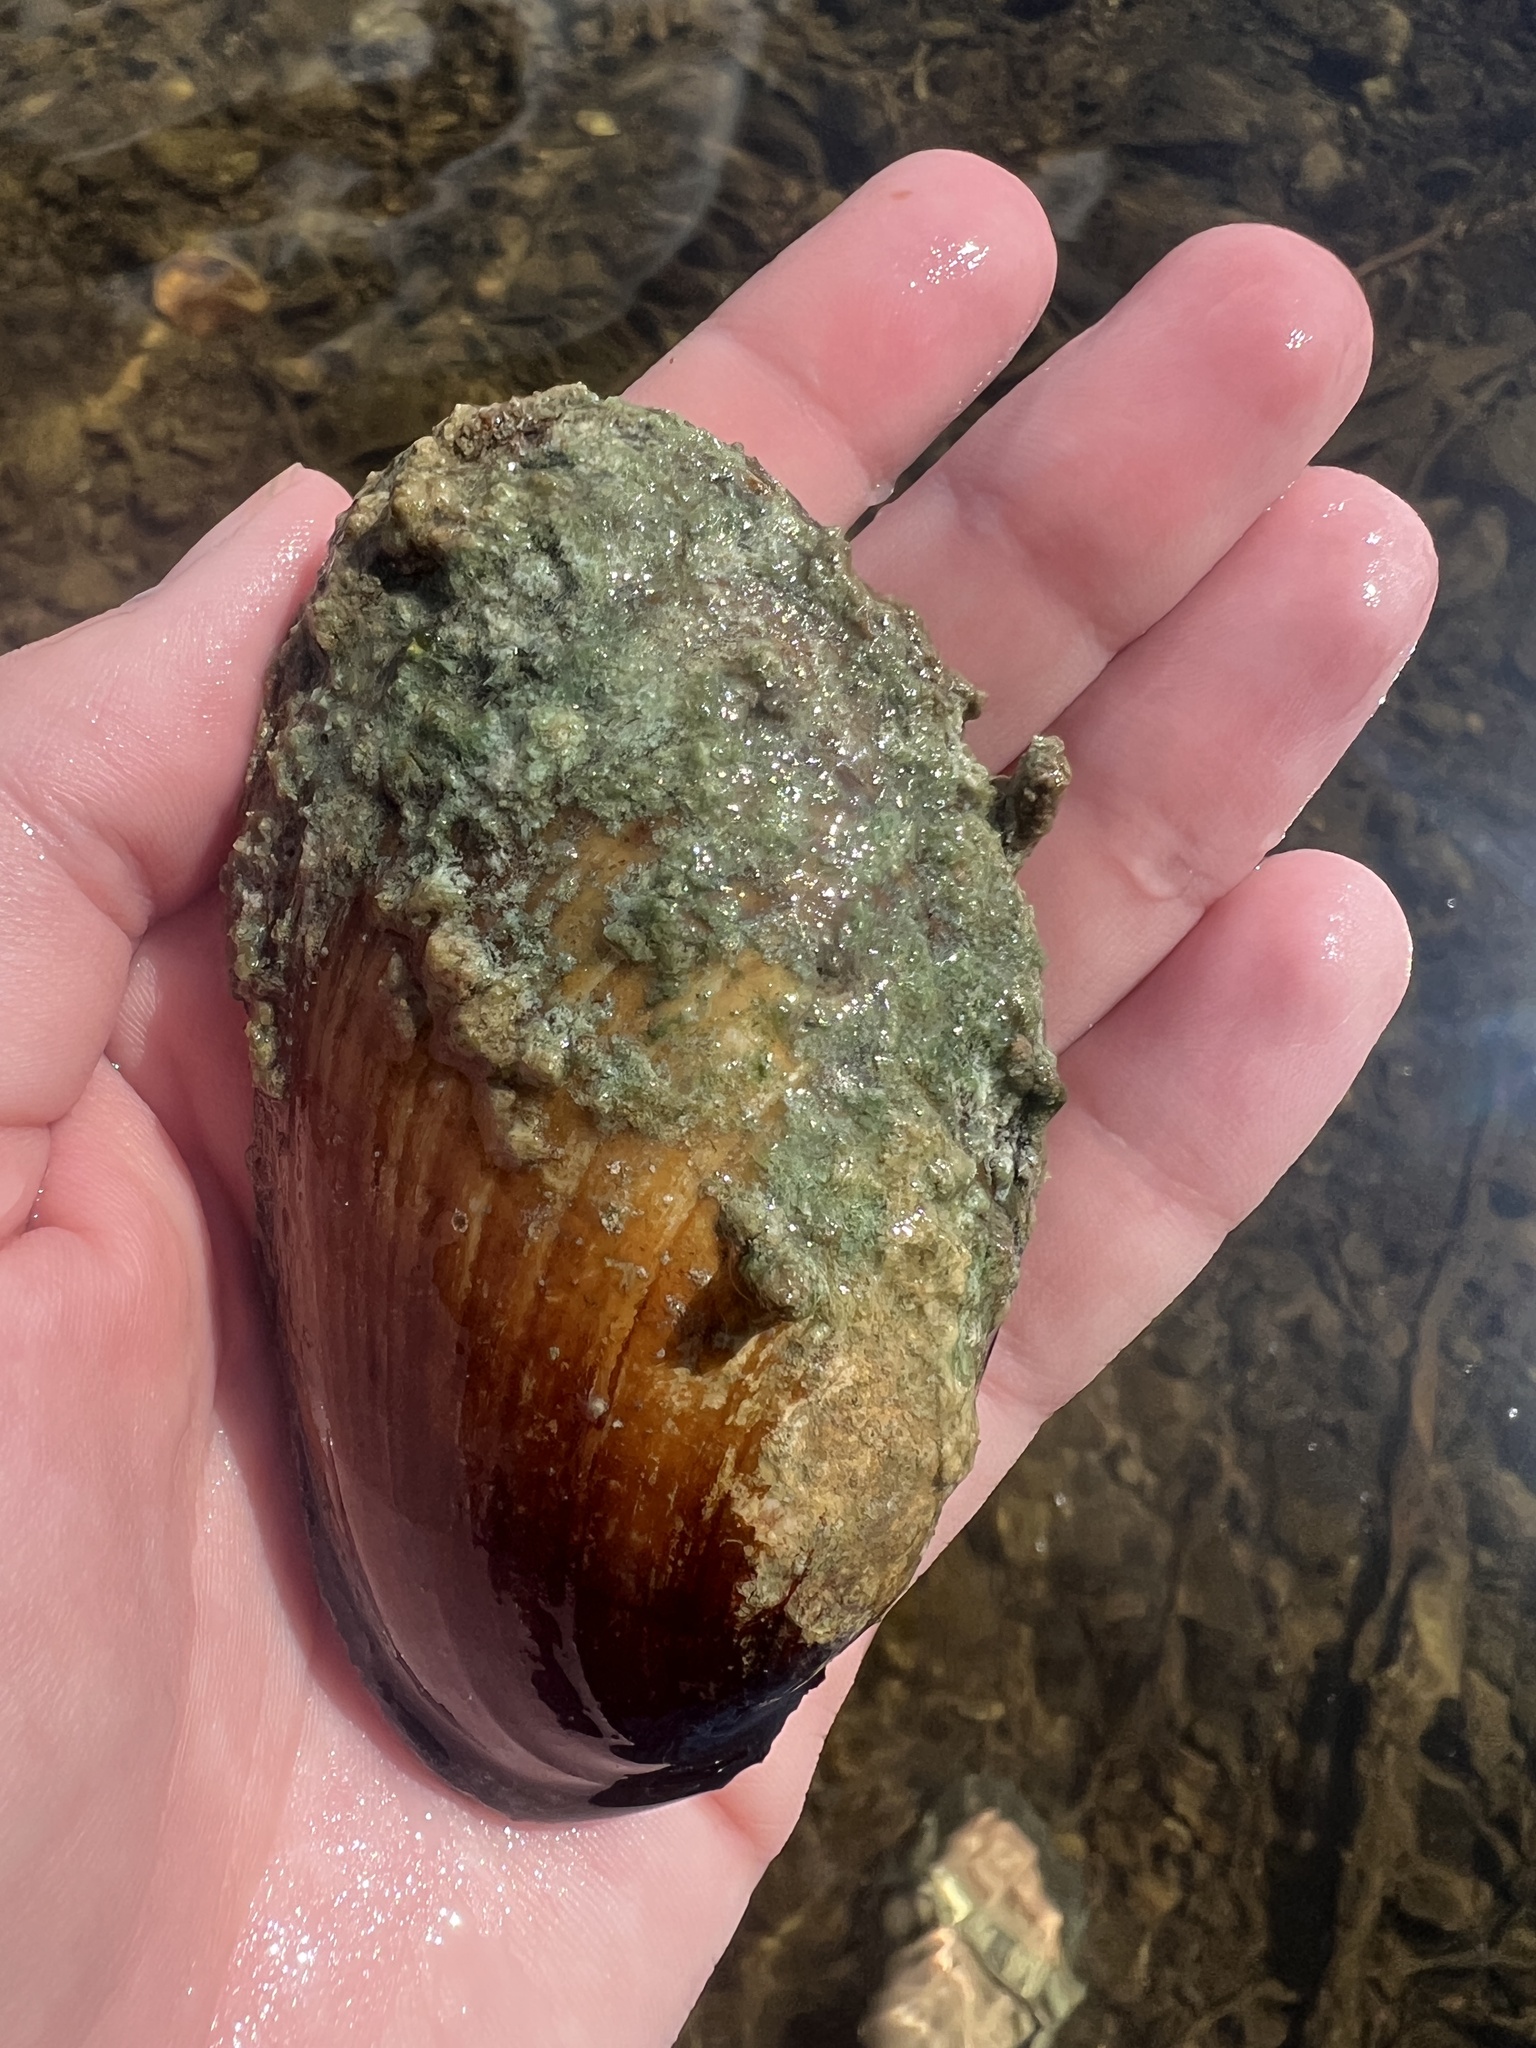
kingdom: Animalia
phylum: Mollusca
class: Bivalvia
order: Unionida
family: Unionidae
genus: Lampsilis
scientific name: Lampsilis siliquoidea
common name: Fatmucket
